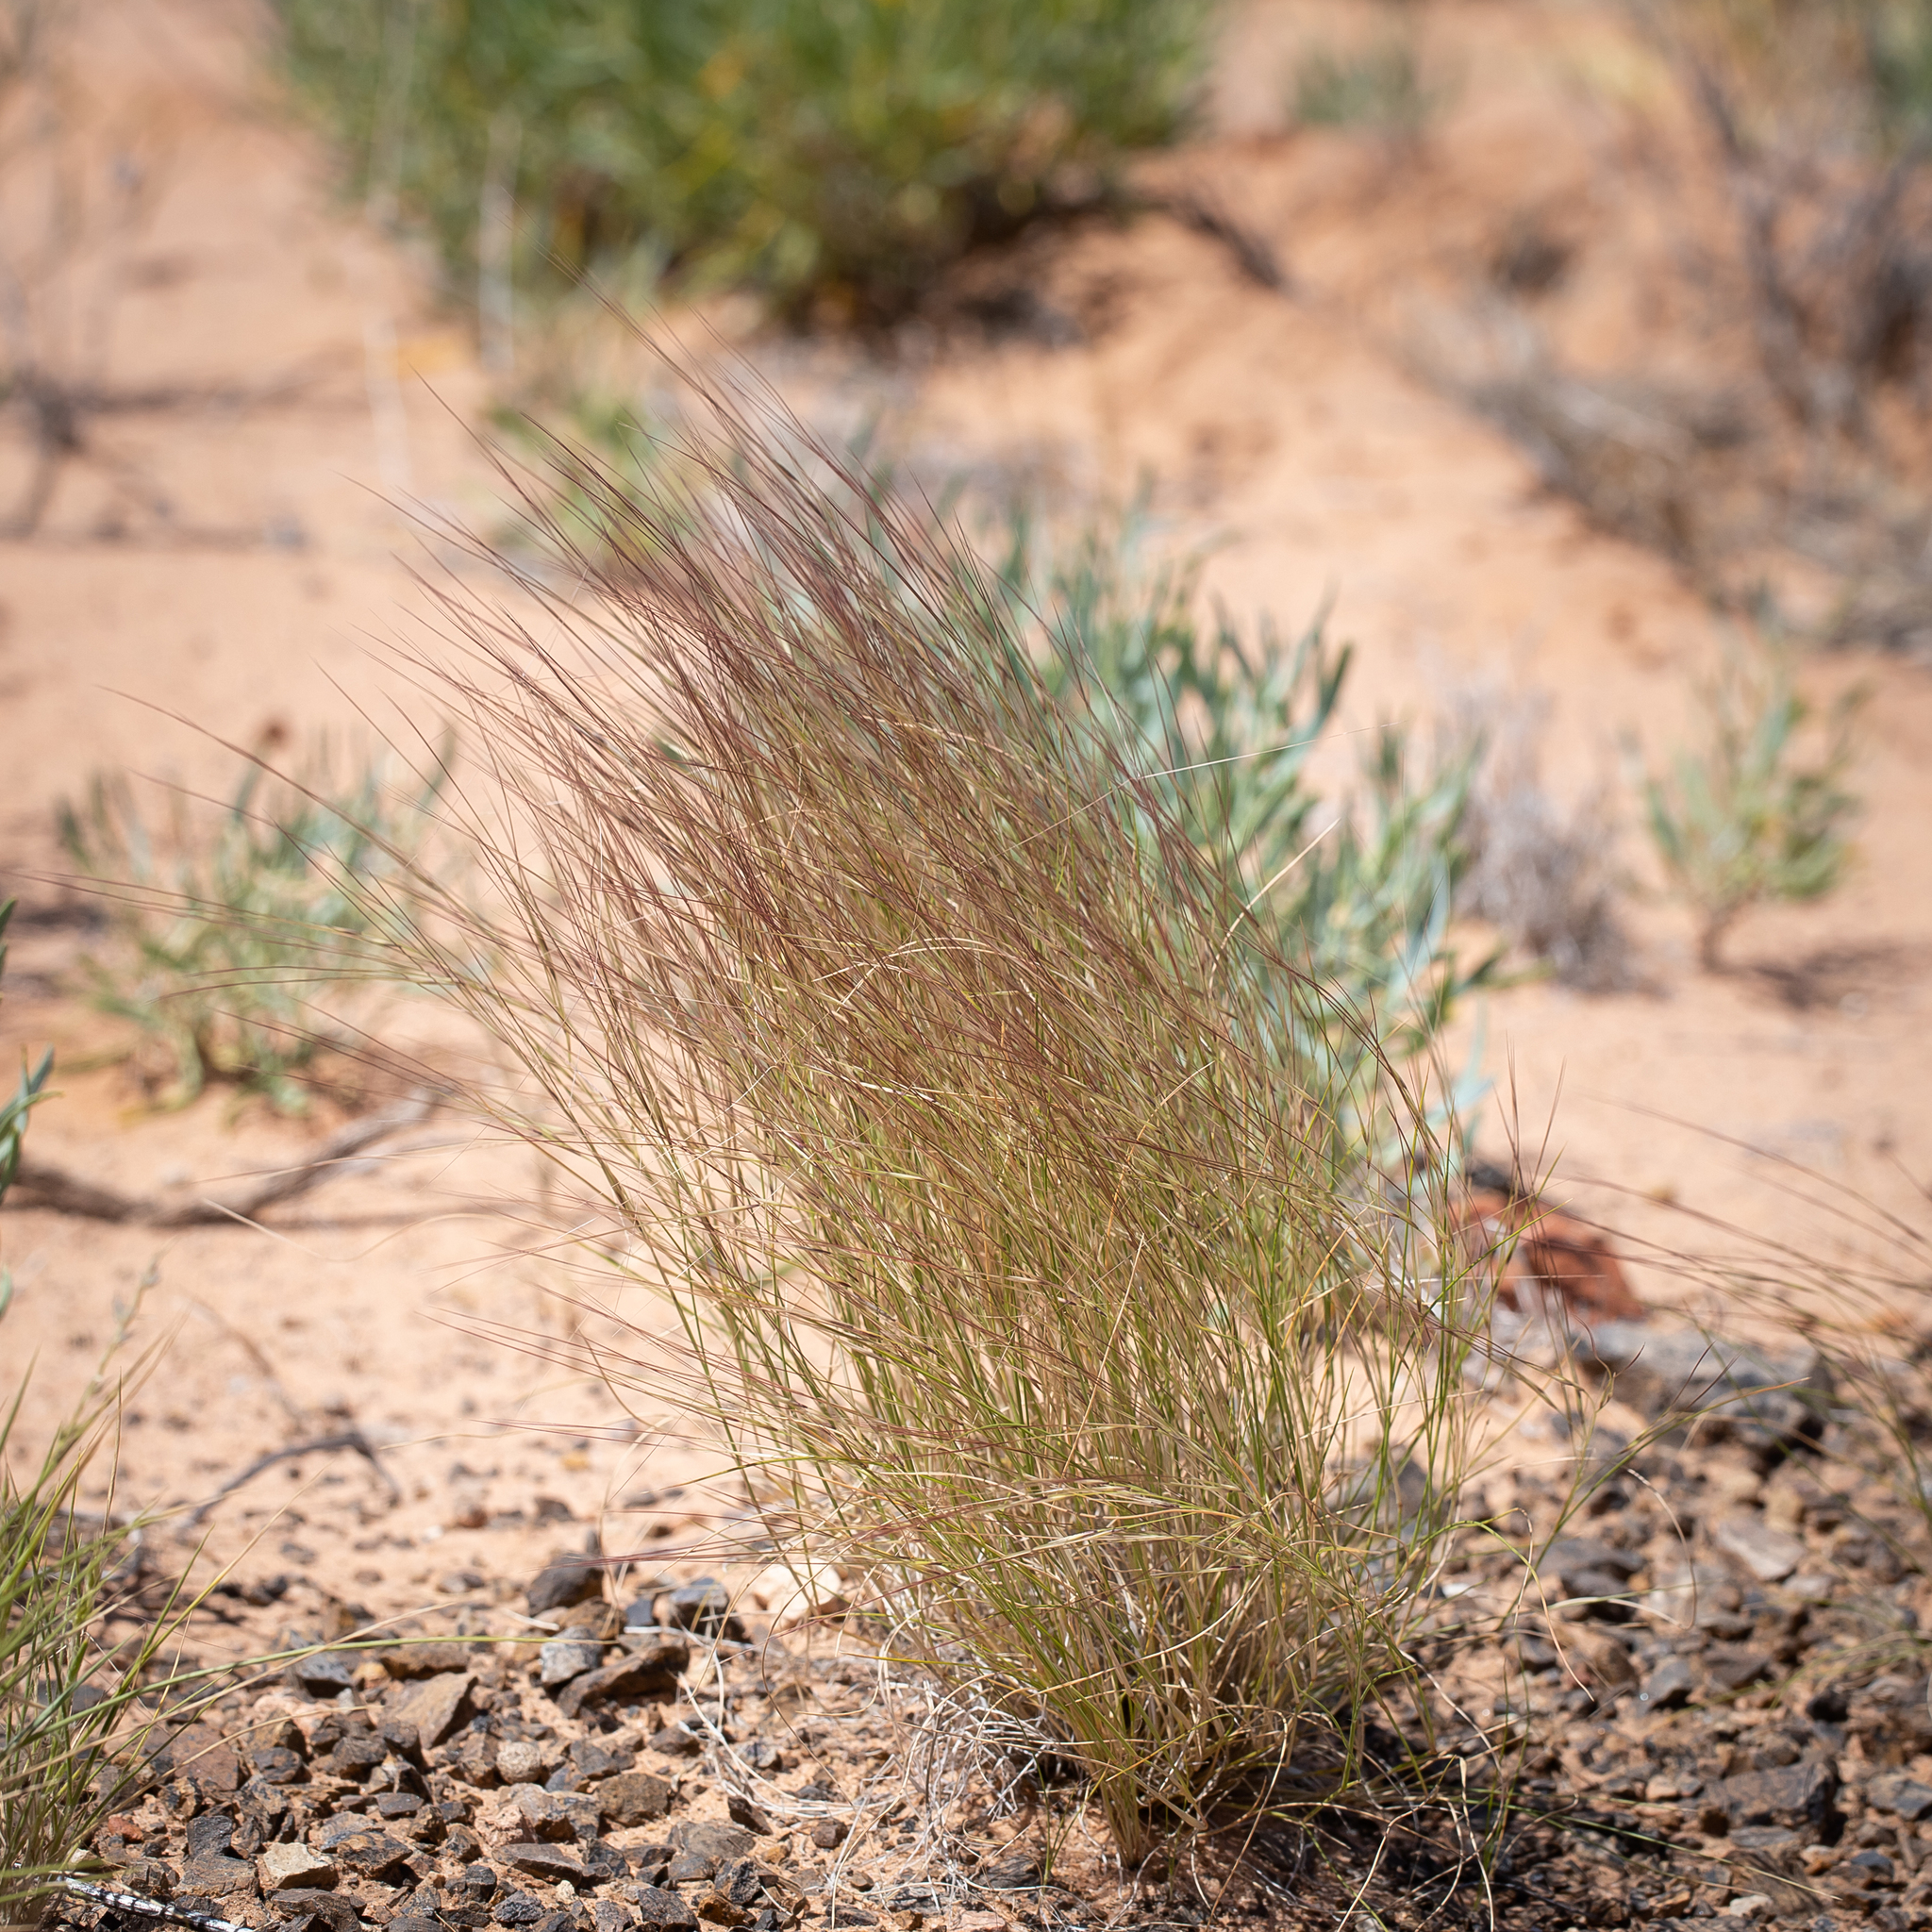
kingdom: Plantae
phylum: Tracheophyta
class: Liliopsida
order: Poales
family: Poaceae
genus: Aristida
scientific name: Aristida contorta
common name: Bunch kerosene grass
